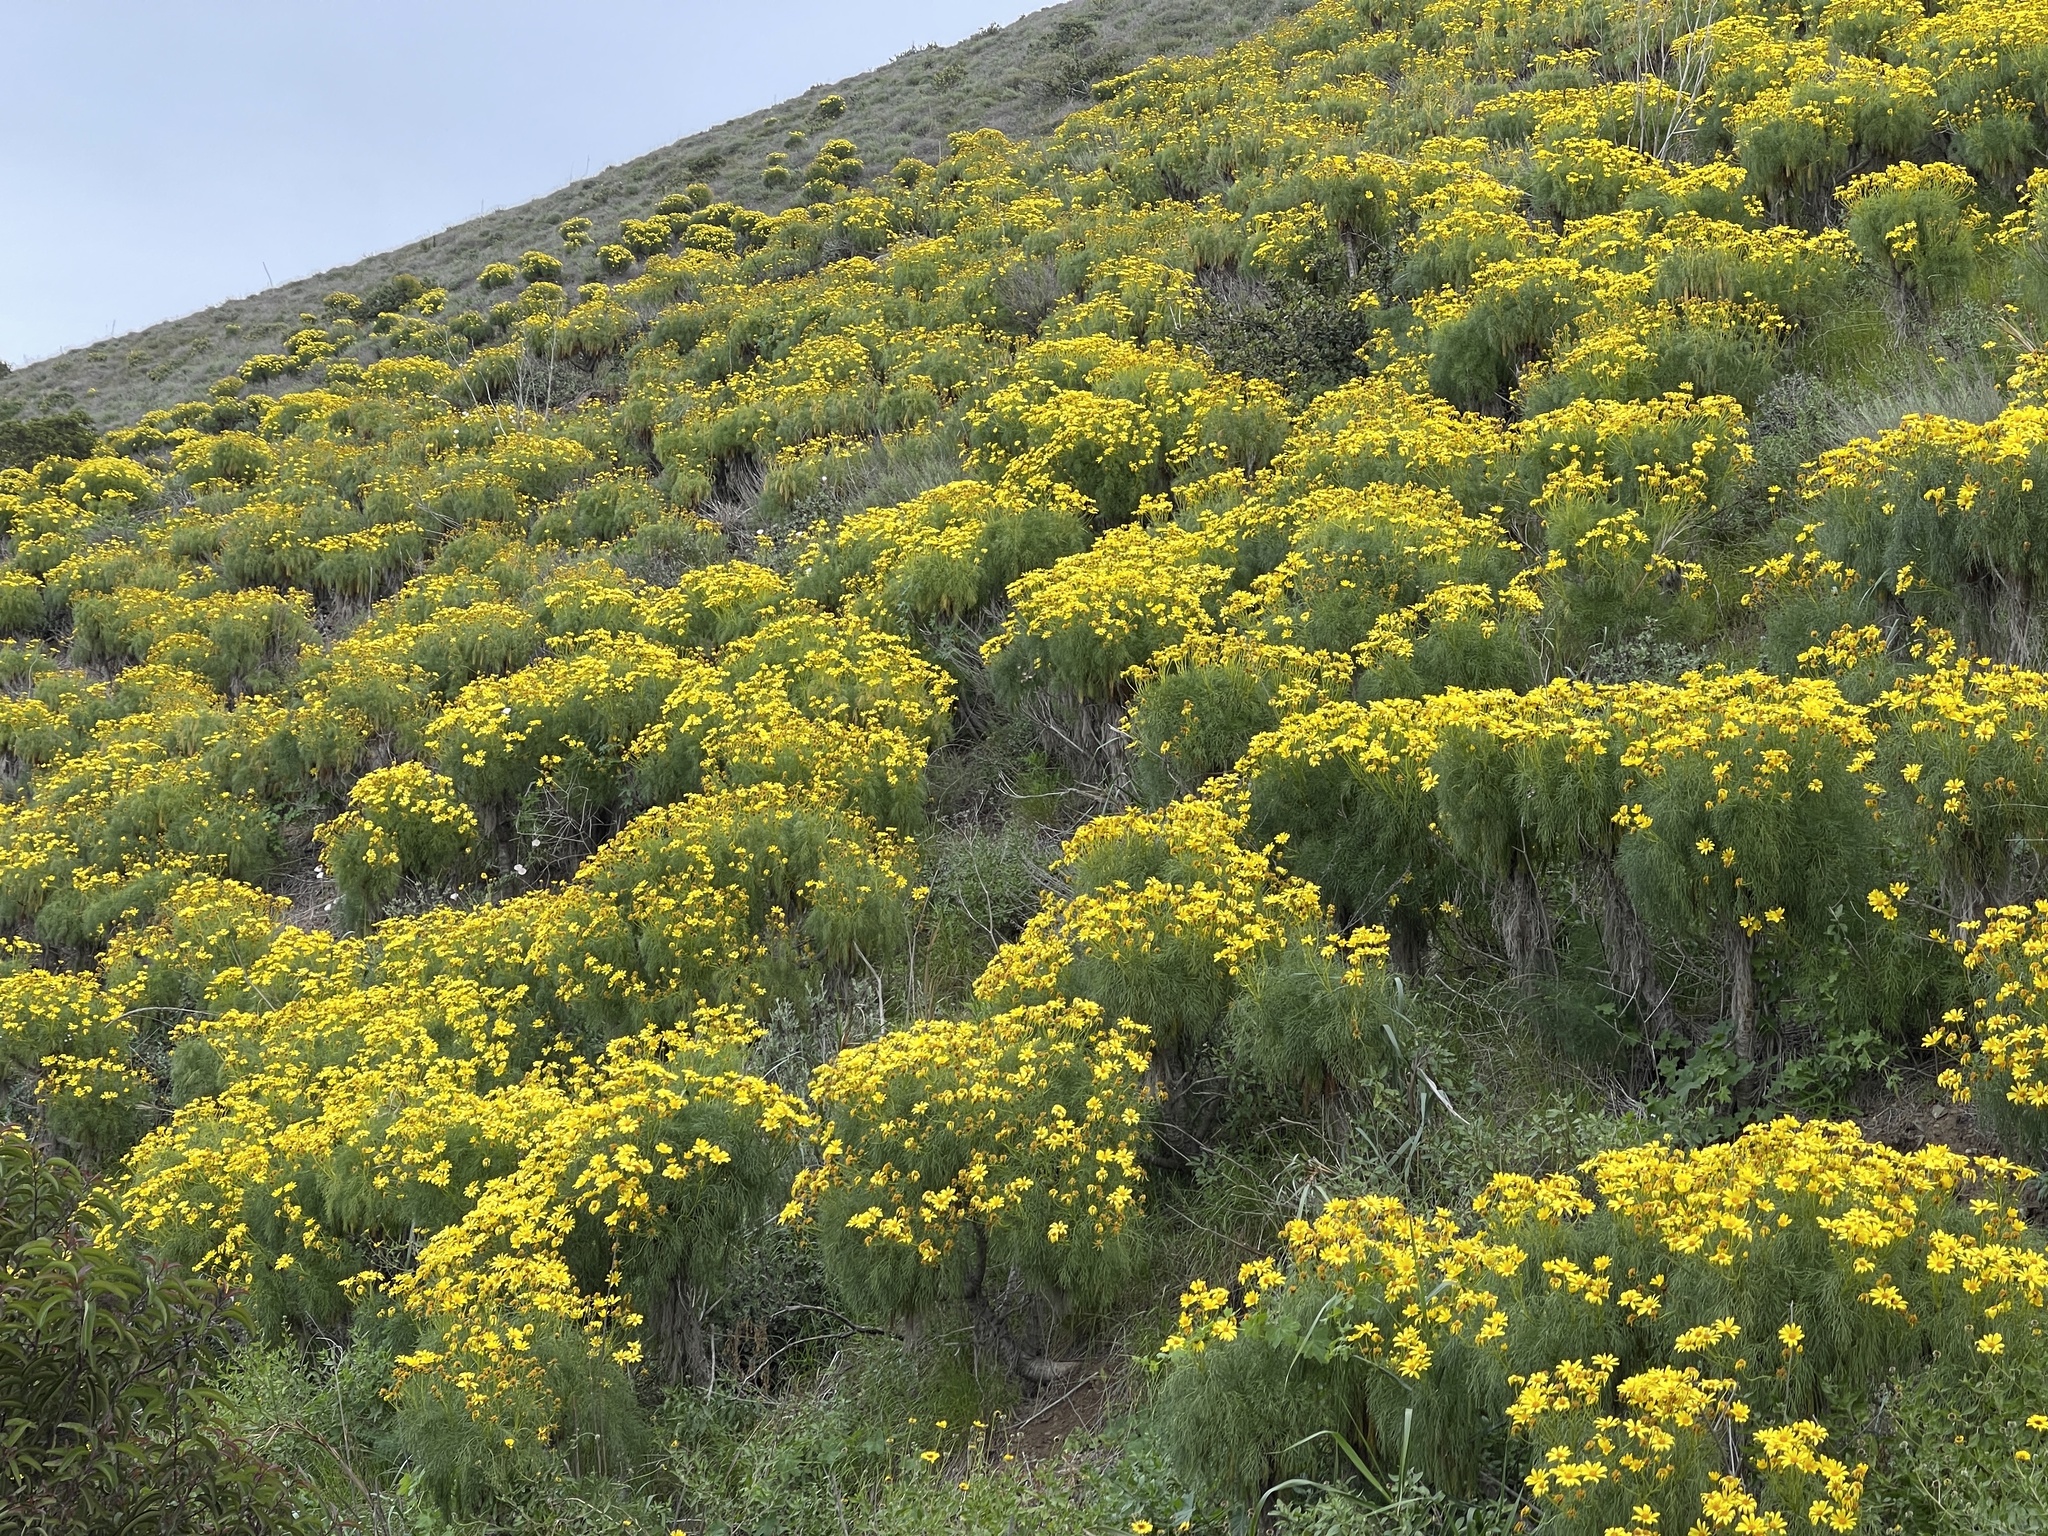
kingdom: Plantae
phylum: Tracheophyta
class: Magnoliopsida
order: Asterales
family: Asteraceae
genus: Coreopsis
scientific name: Coreopsis gigantea
